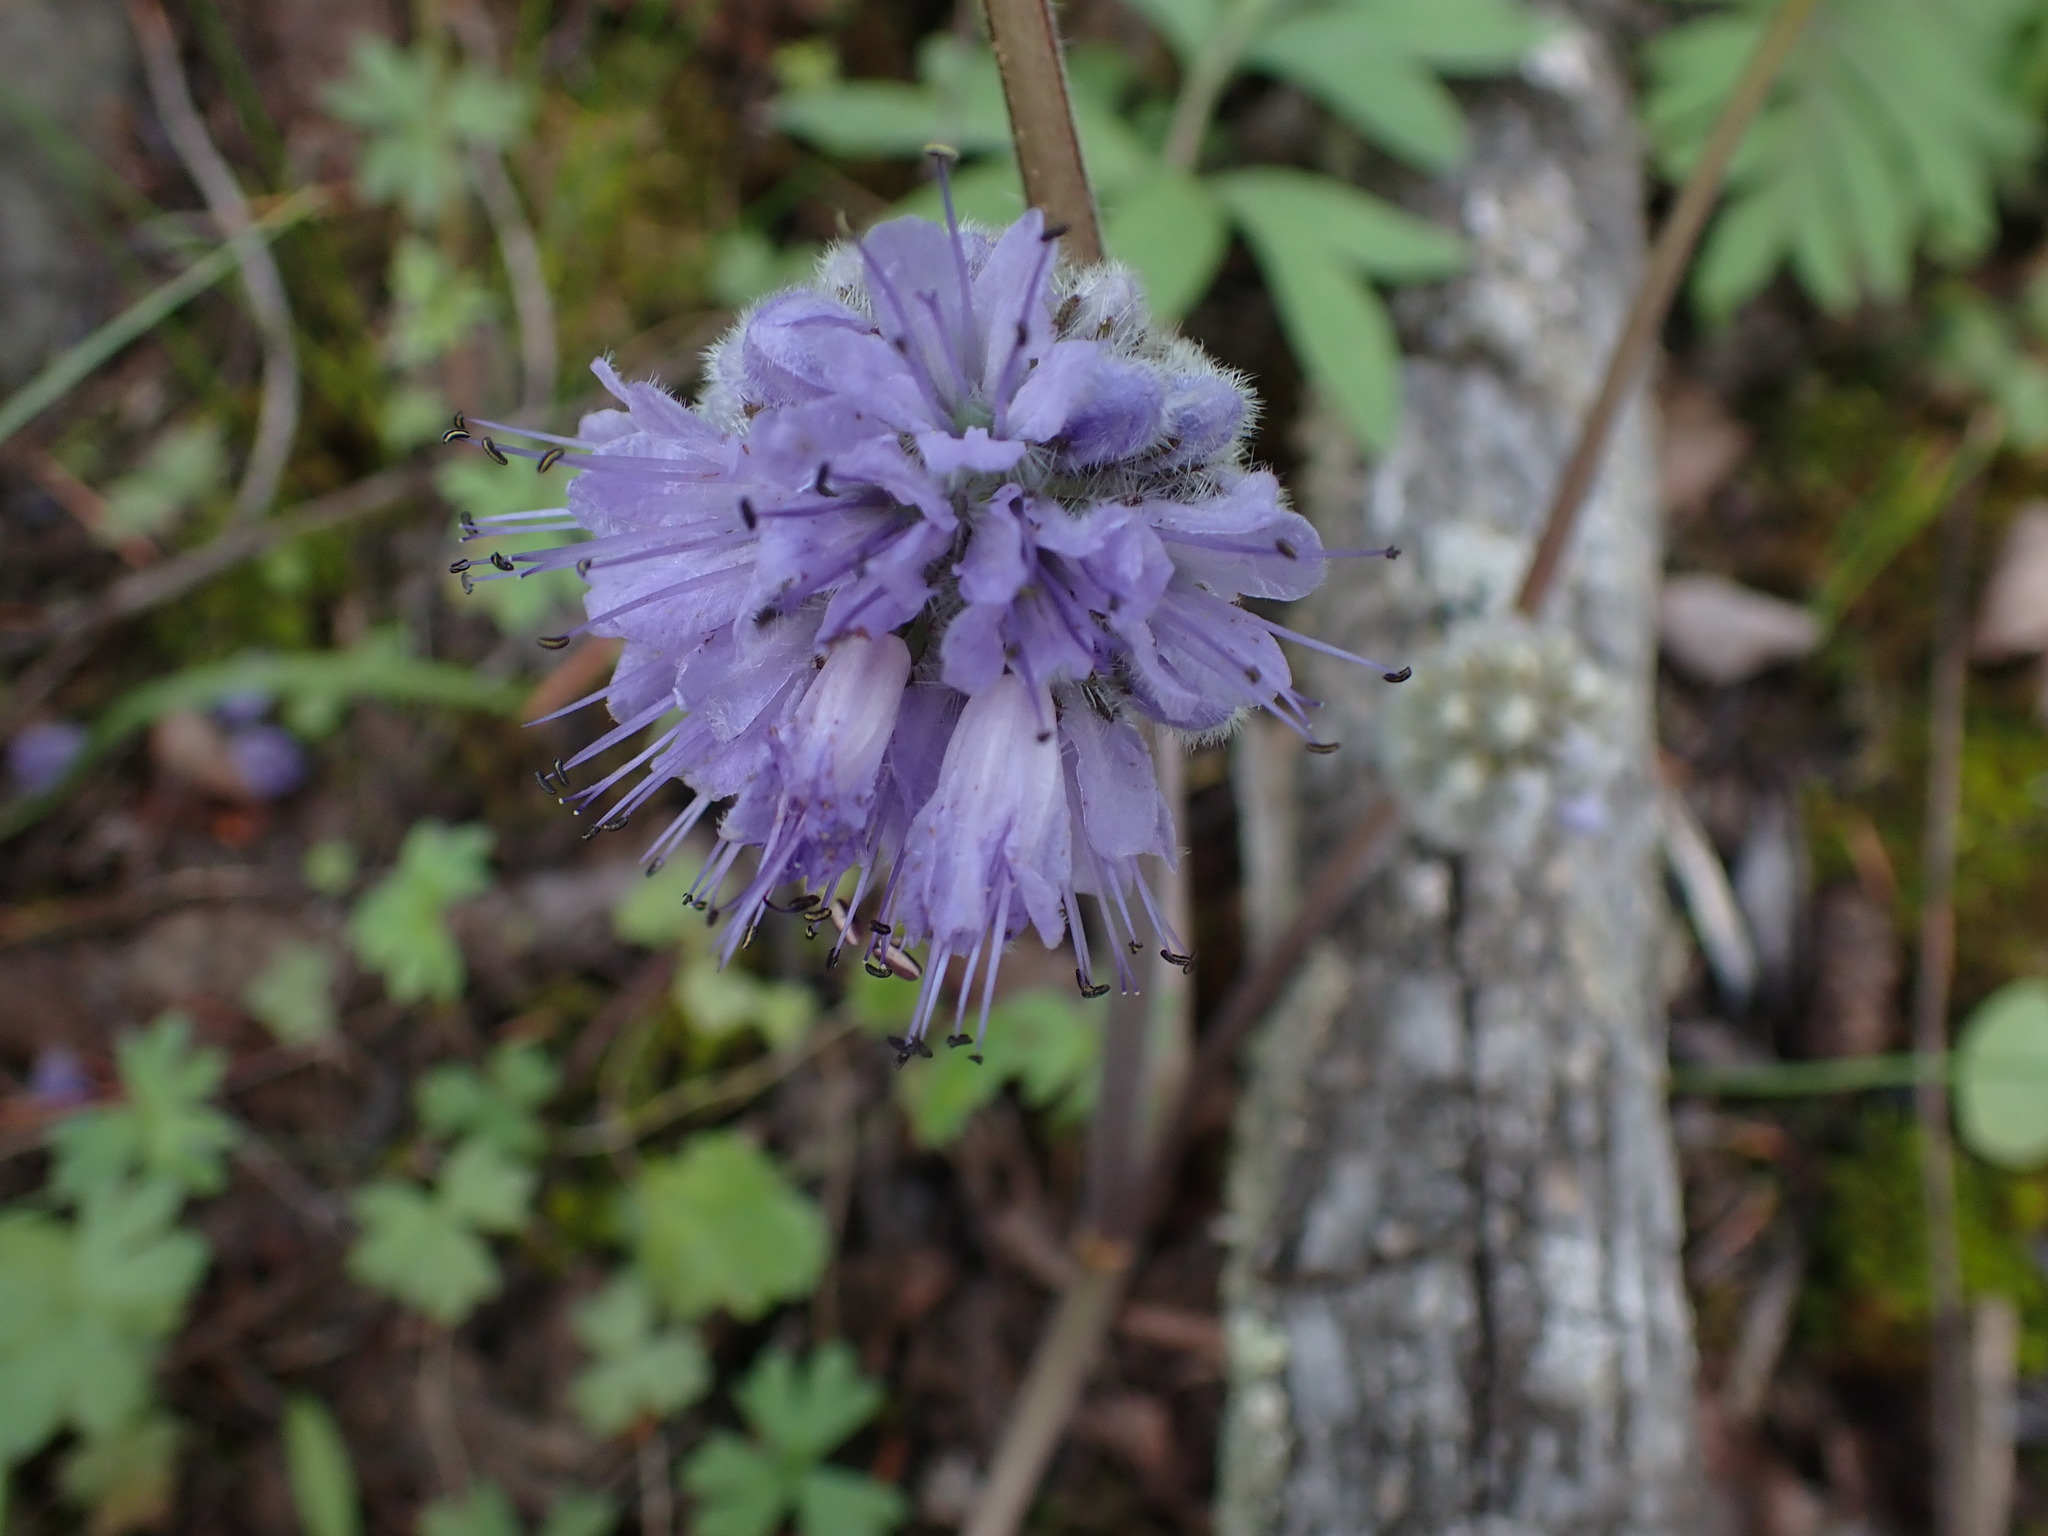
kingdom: Plantae
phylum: Tracheophyta
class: Magnoliopsida
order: Boraginales
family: Hydrophyllaceae
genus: Hydrophyllum
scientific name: Hydrophyllum capitatum
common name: Woollen-breeches
